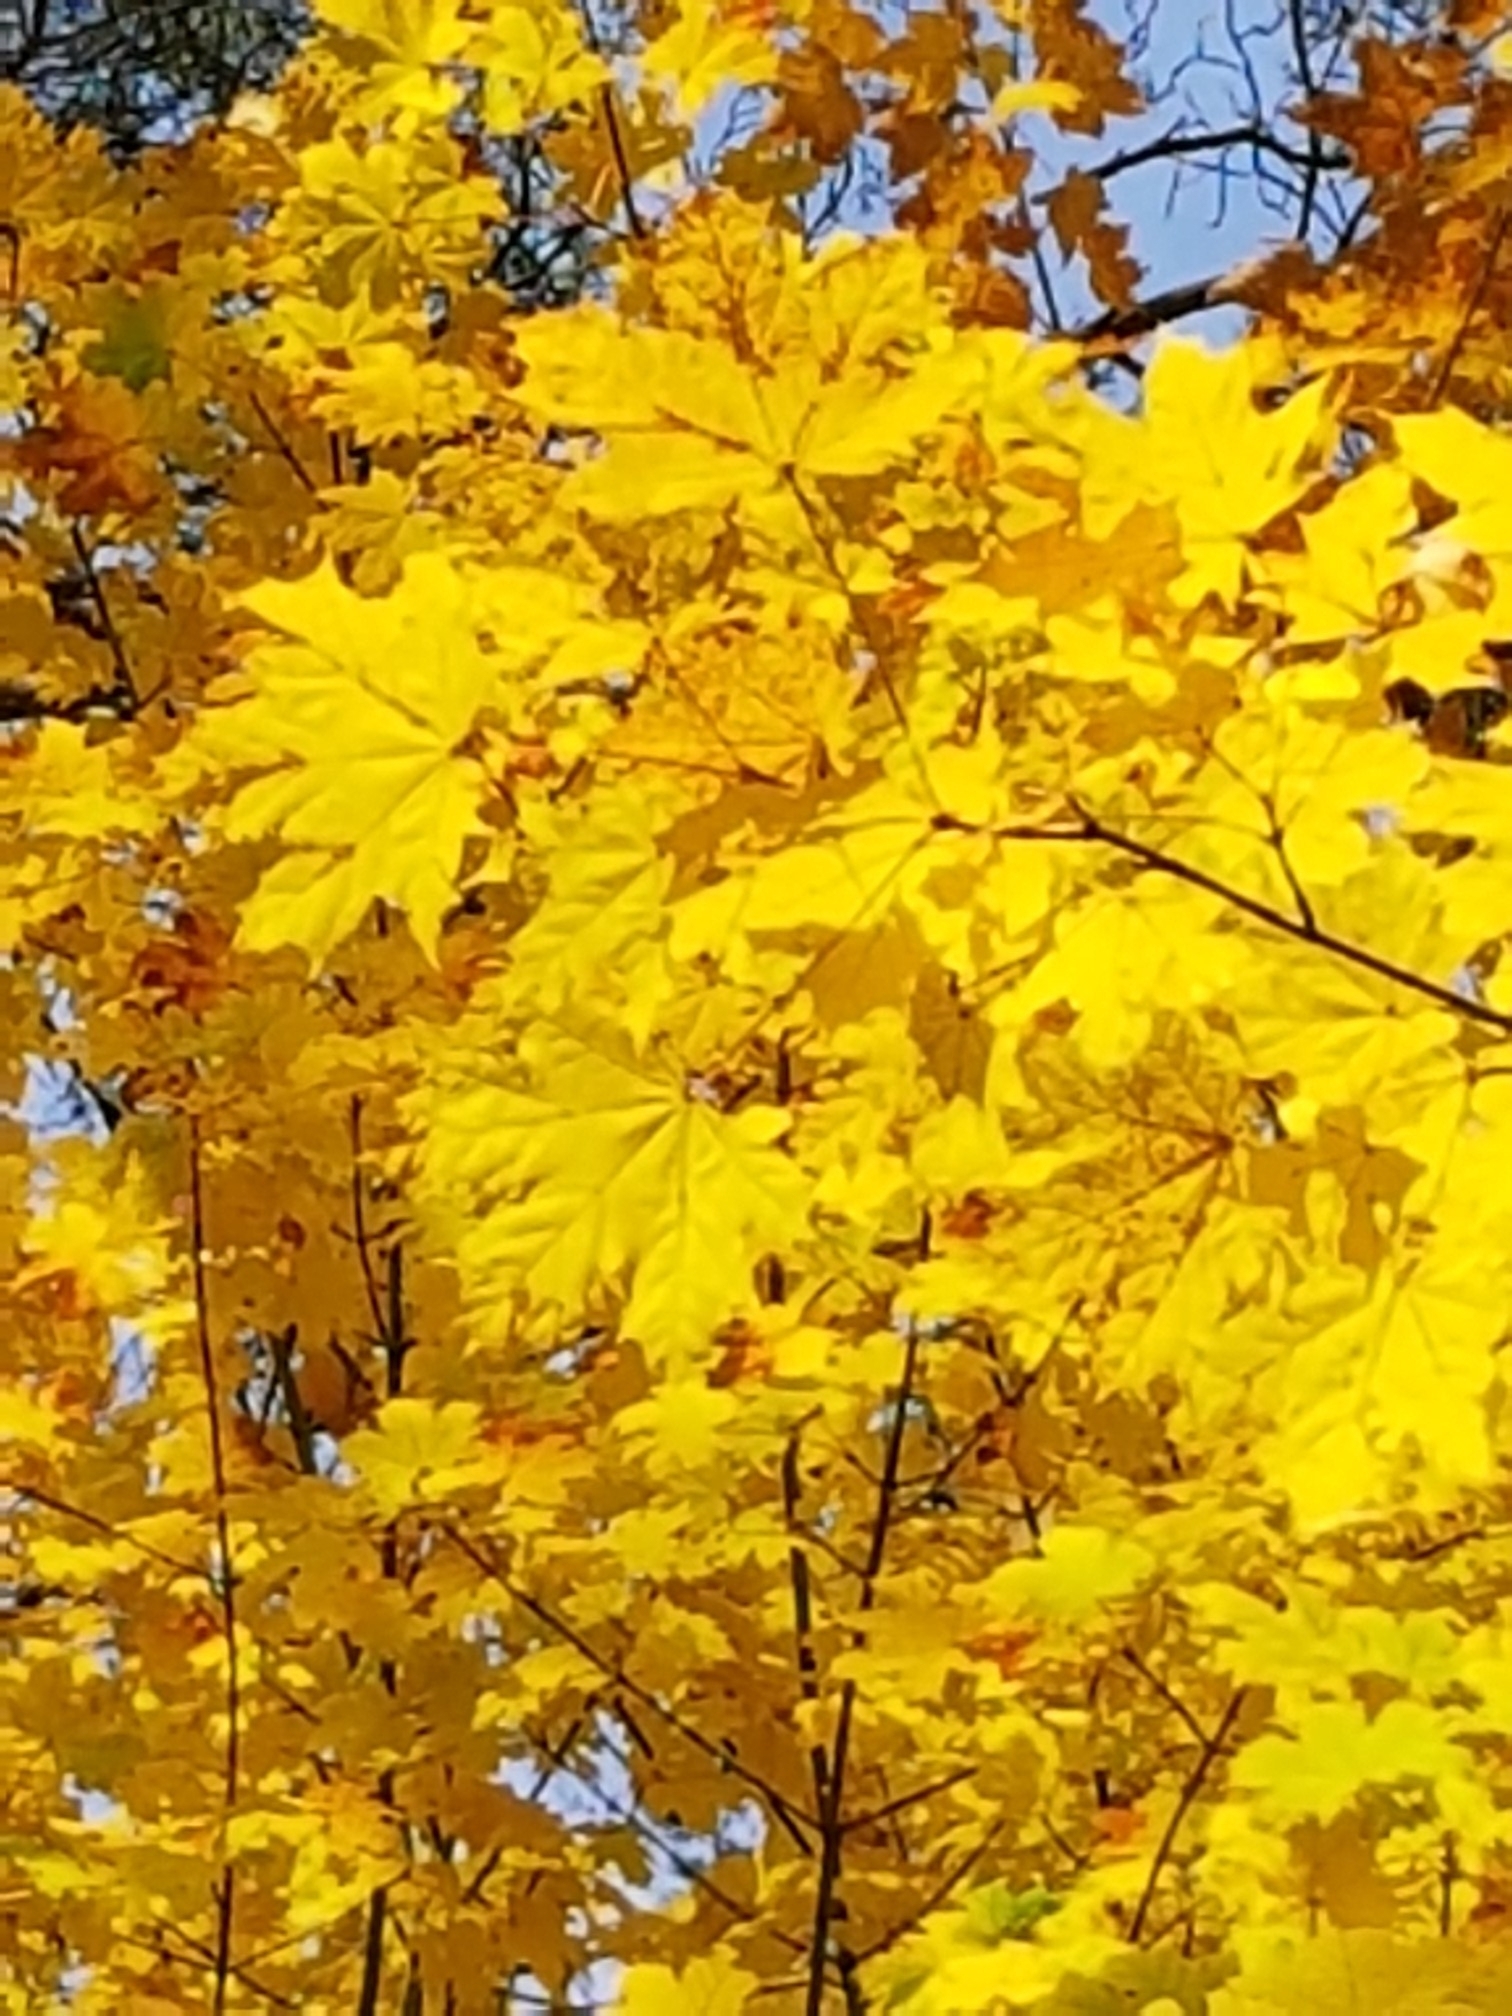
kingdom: Plantae
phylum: Tracheophyta
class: Magnoliopsida
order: Sapindales
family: Sapindaceae
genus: Acer
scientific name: Acer platanoides
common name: Norway maple
